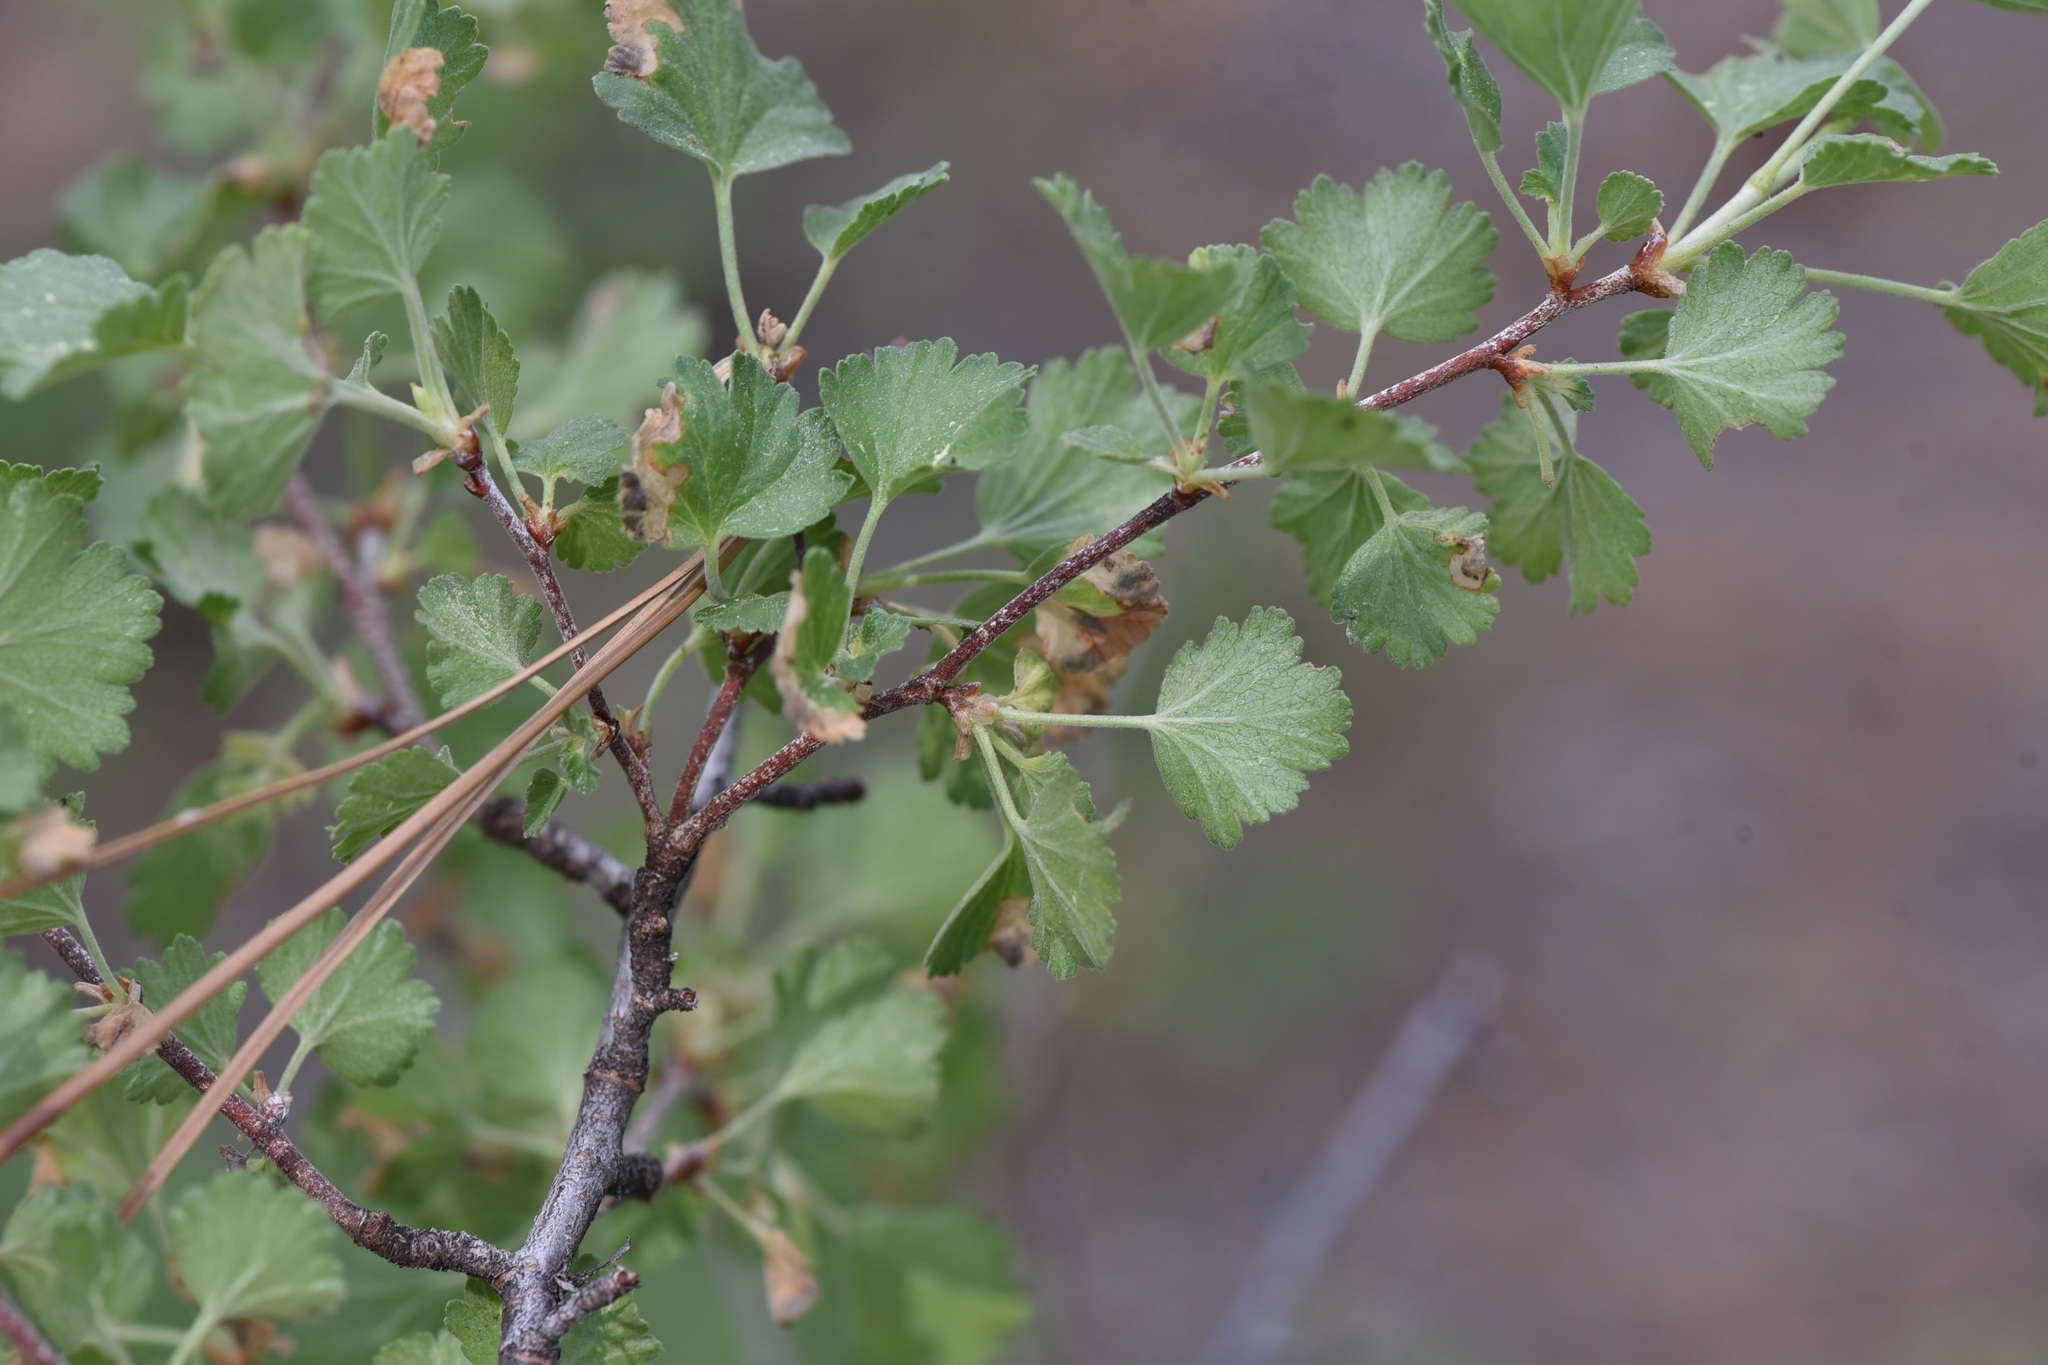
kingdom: Plantae
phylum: Tracheophyta
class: Magnoliopsida
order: Saxifragales
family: Grossulariaceae
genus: Ribes
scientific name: Ribes cereum
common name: Wax currant
